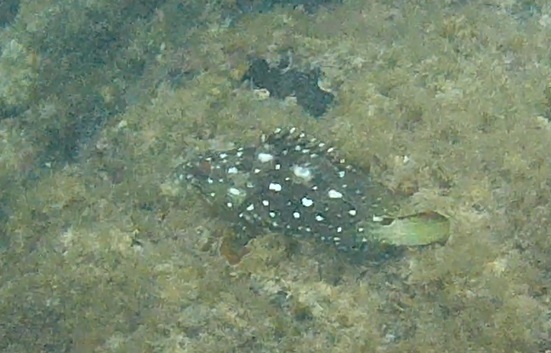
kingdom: Animalia
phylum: Chordata
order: Perciformes
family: Serranidae
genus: Epinephelus
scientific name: Epinephelus labriformis
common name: Flag cabrilla
